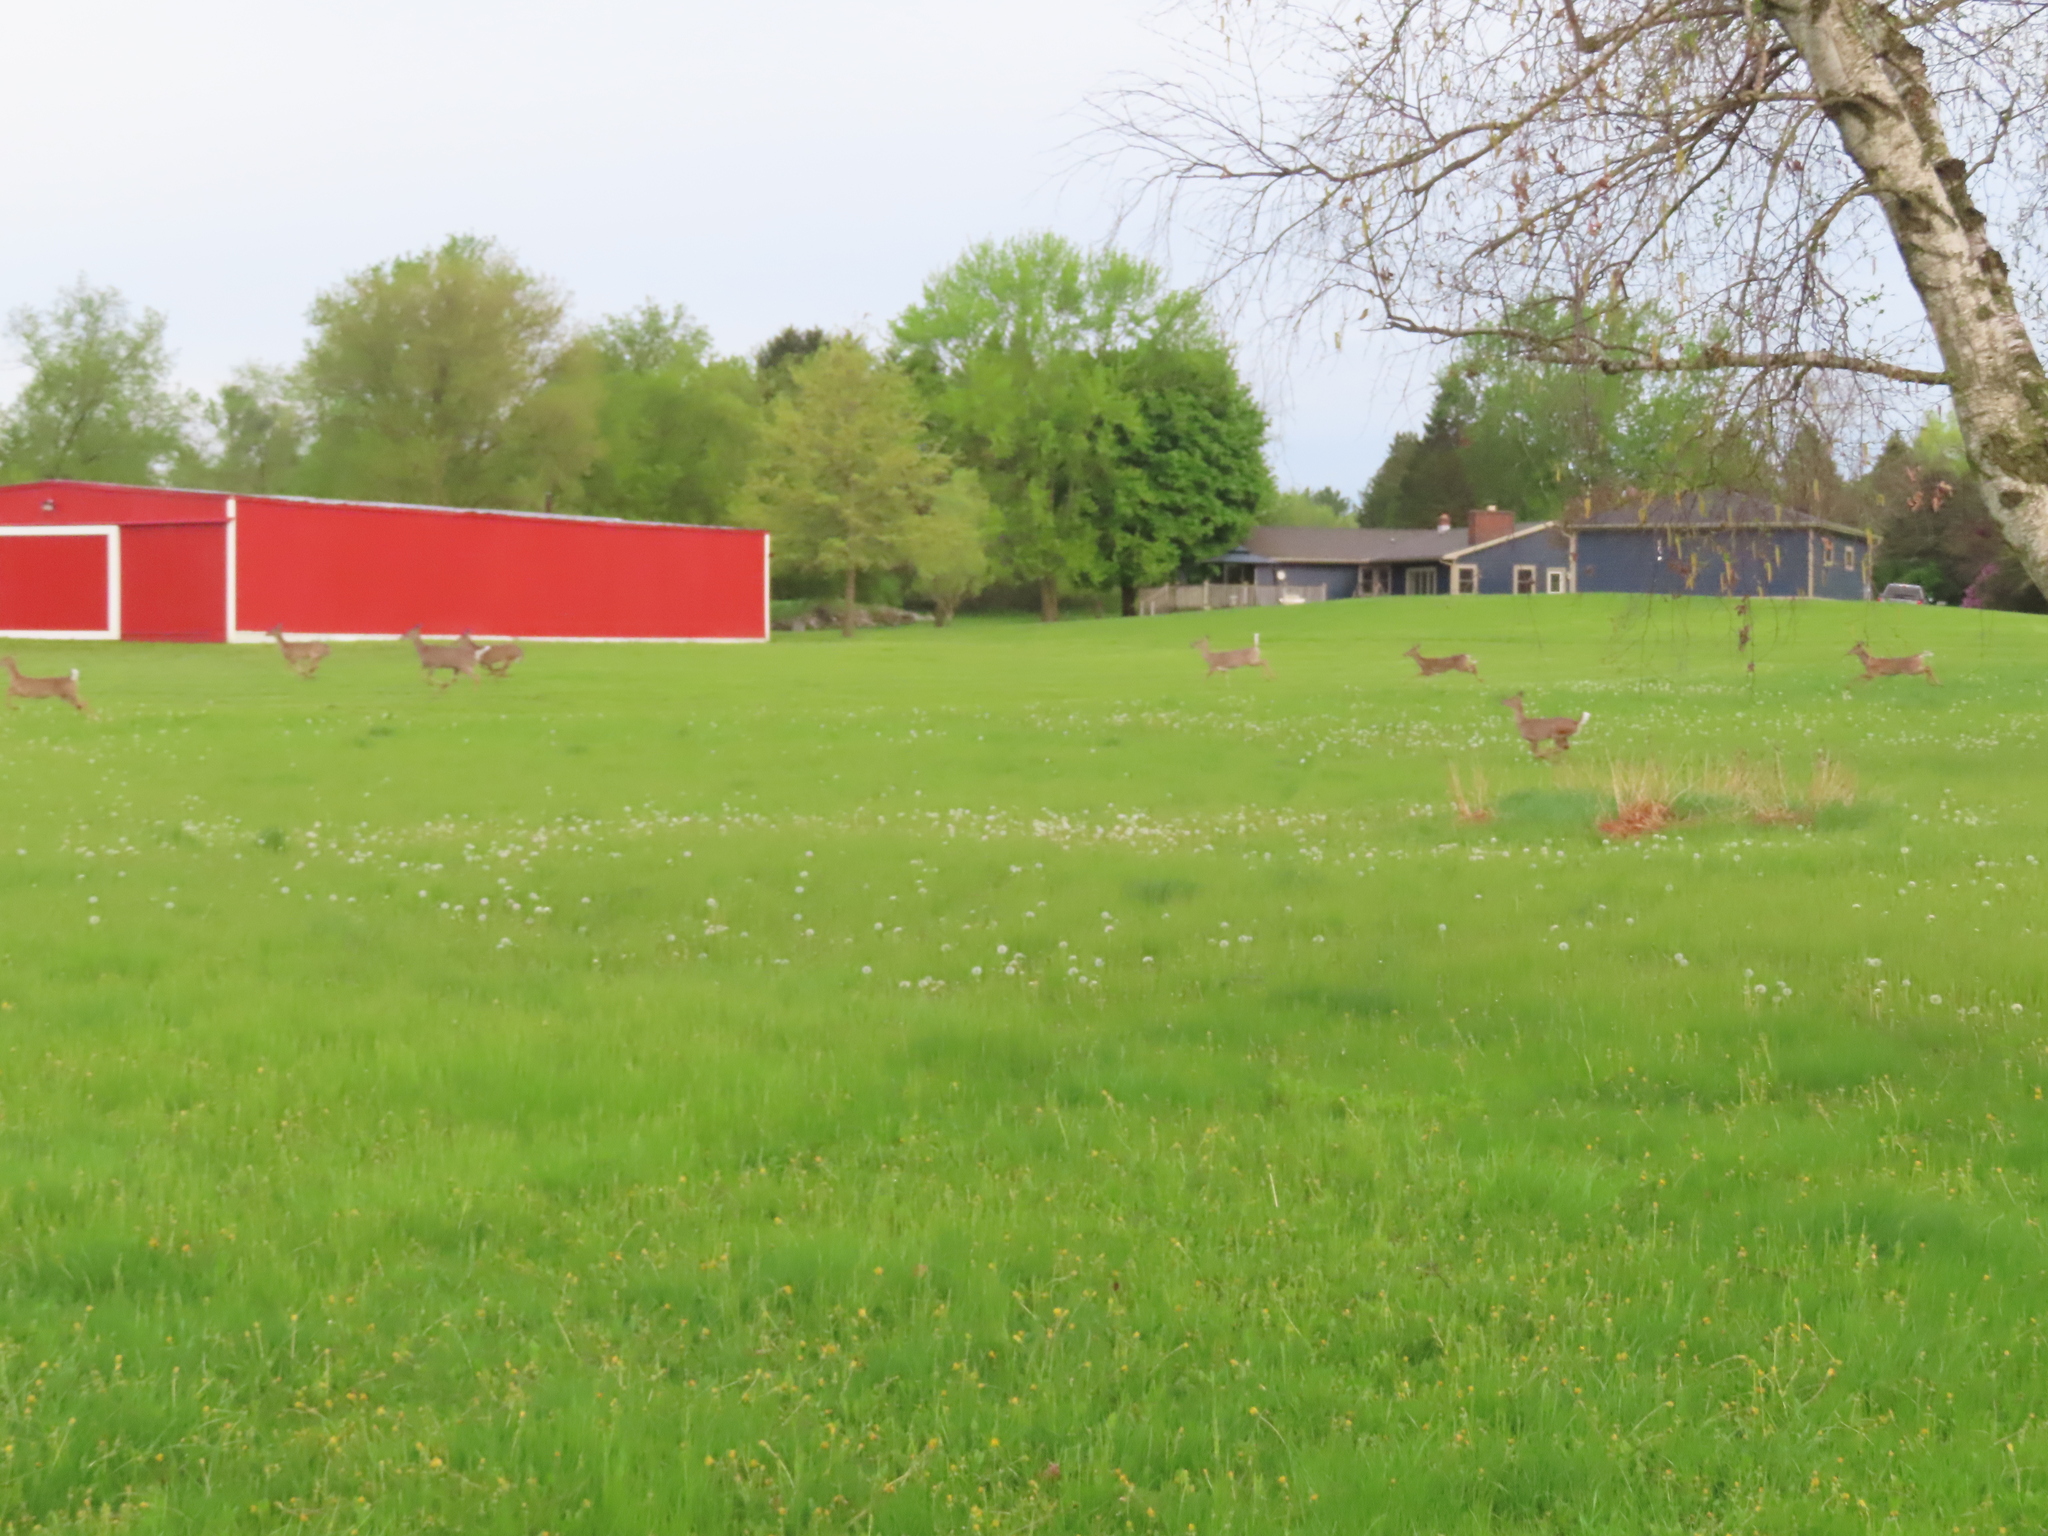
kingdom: Animalia
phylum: Chordata
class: Mammalia
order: Artiodactyla
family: Cervidae
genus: Odocoileus
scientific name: Odocoileus virginianus
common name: White-tailed deer
